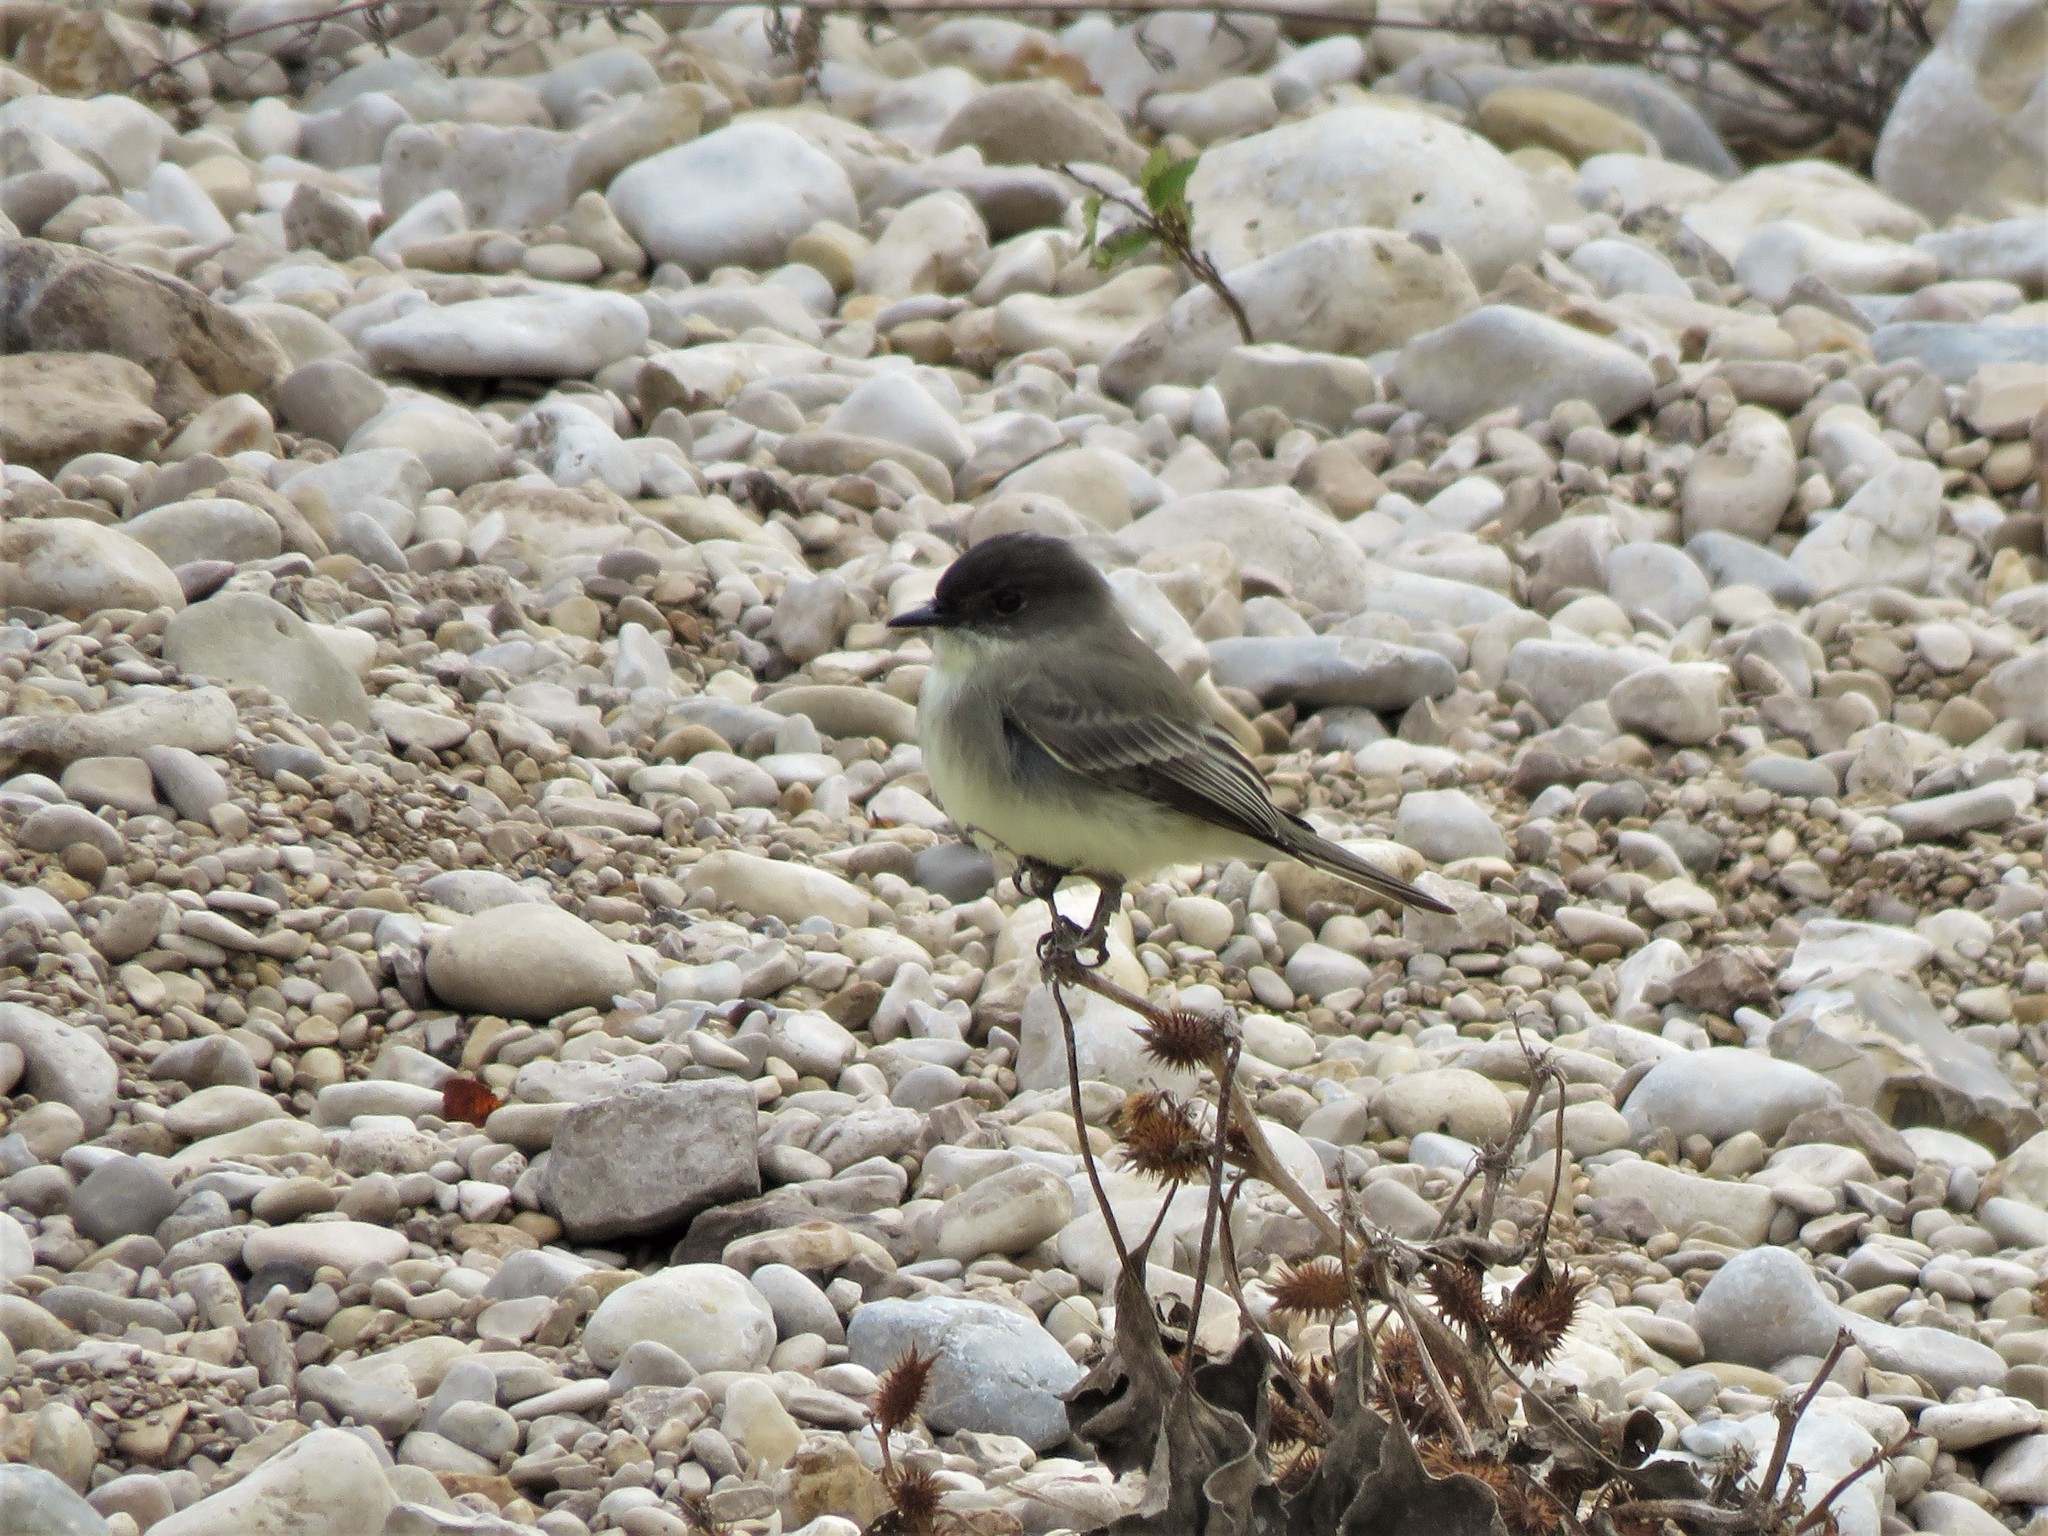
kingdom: Animalia
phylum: Chordata
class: Aves
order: Passeriformes
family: Tyrannidae
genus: Sayornis
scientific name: Sayornis phoebe
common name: Eastern phoebe
